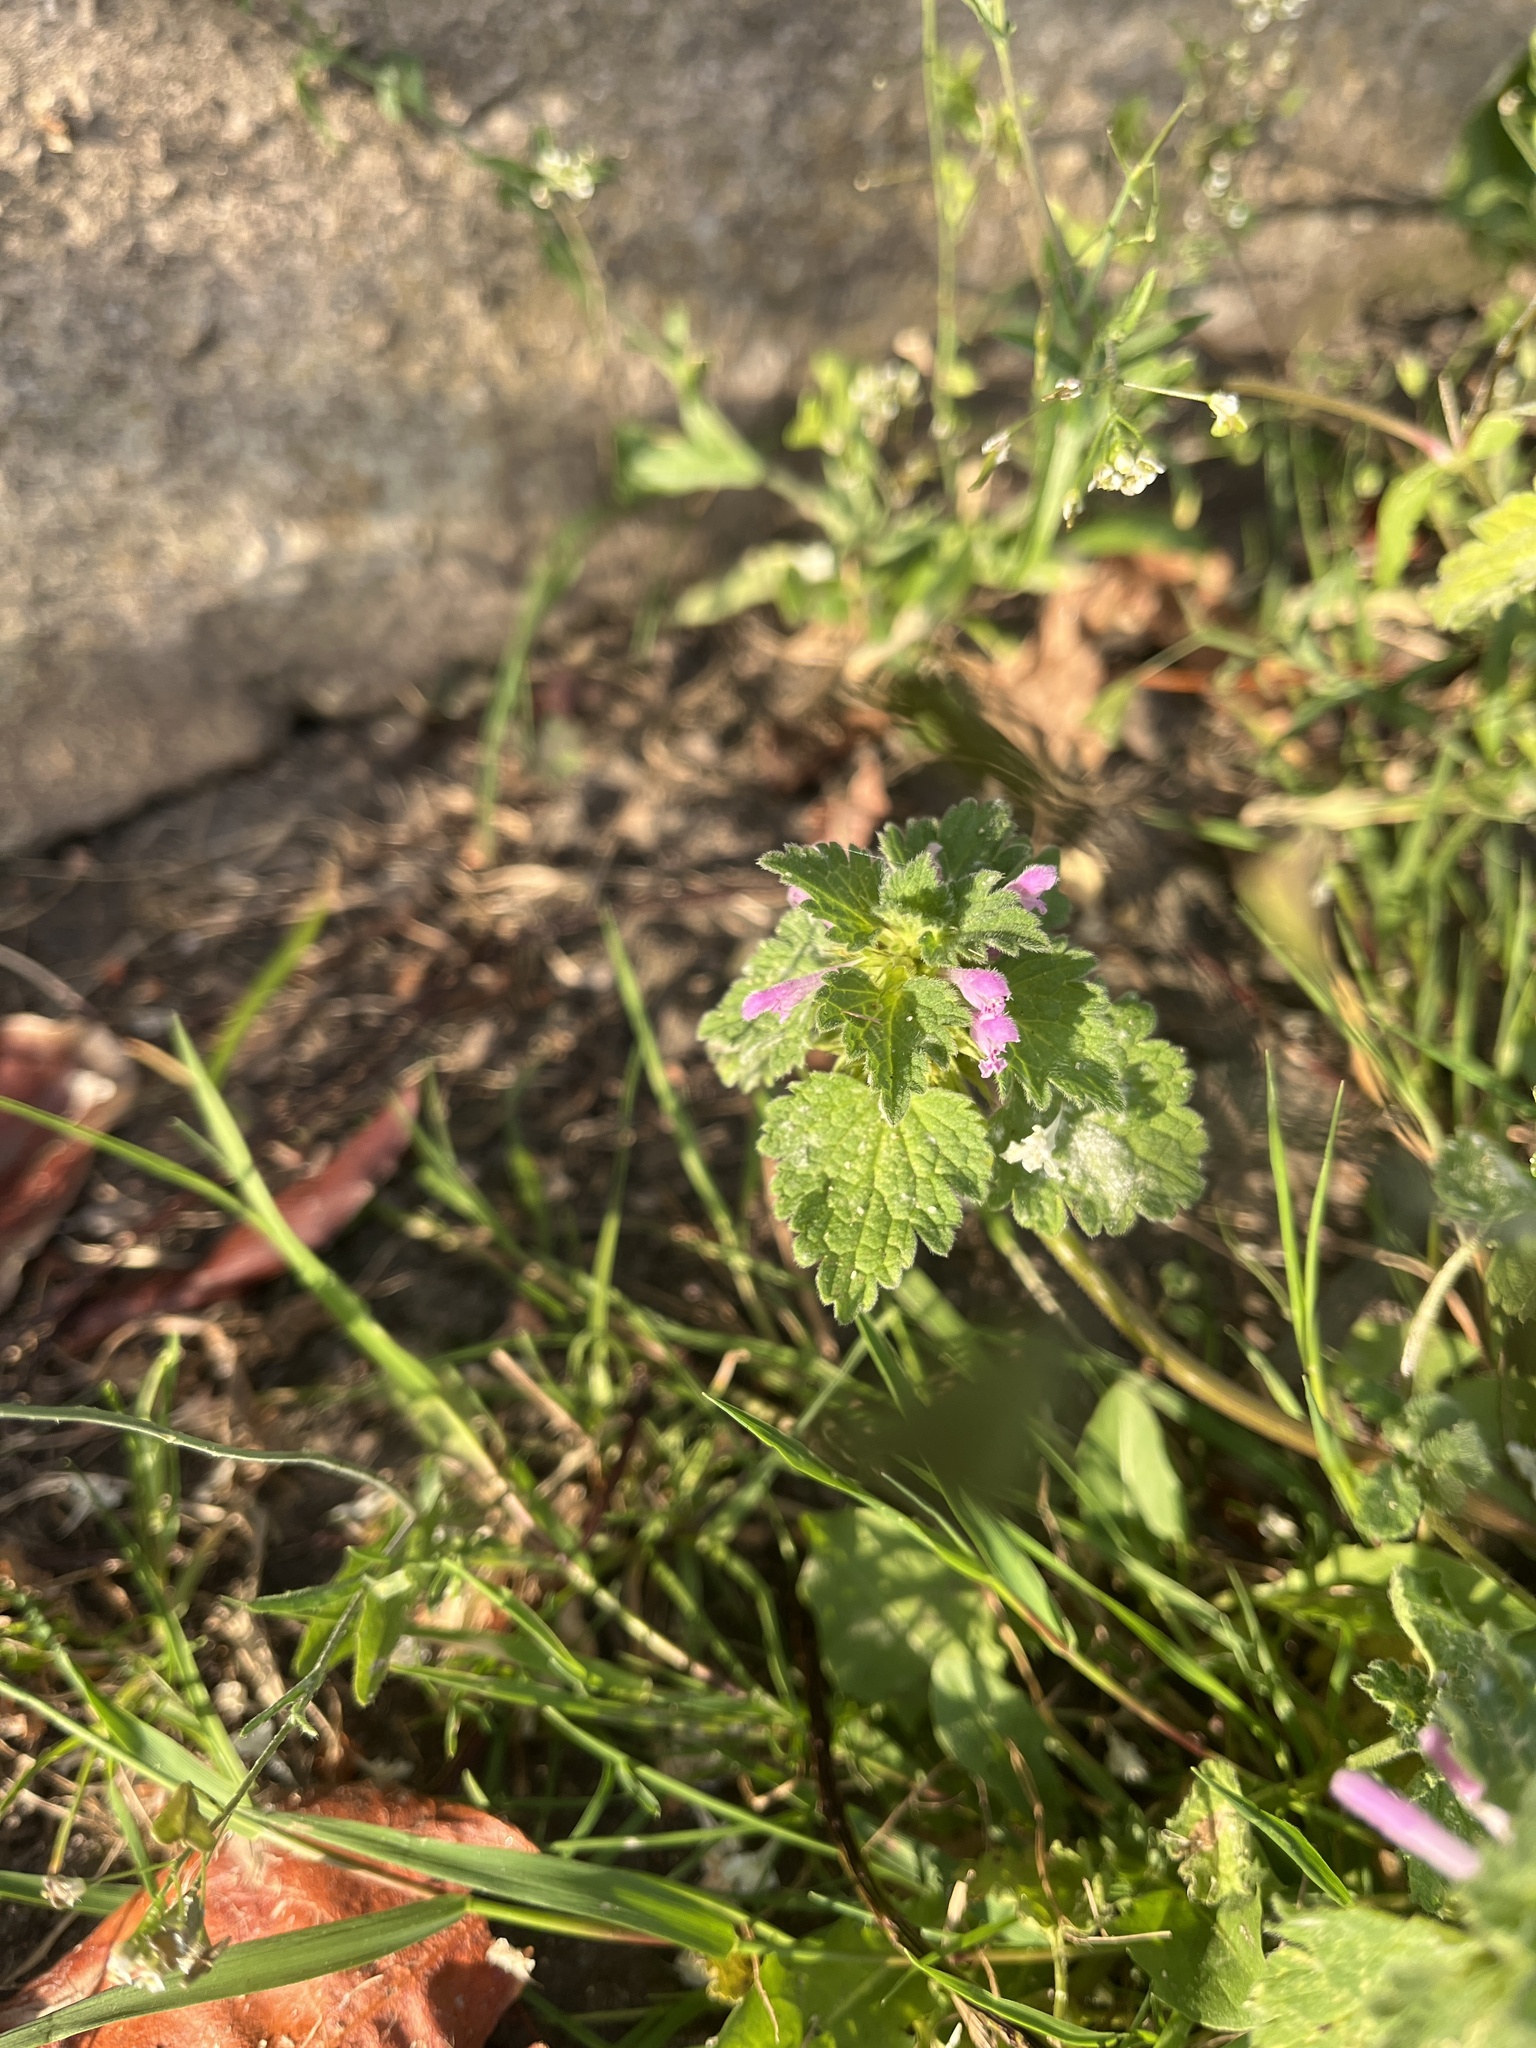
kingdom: Plantae
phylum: Tracheophyta
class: Magnoliopsida
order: Lamiales
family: Lamiaceae
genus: Lamium
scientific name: Lamium purpureum
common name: Red dead-nettle
